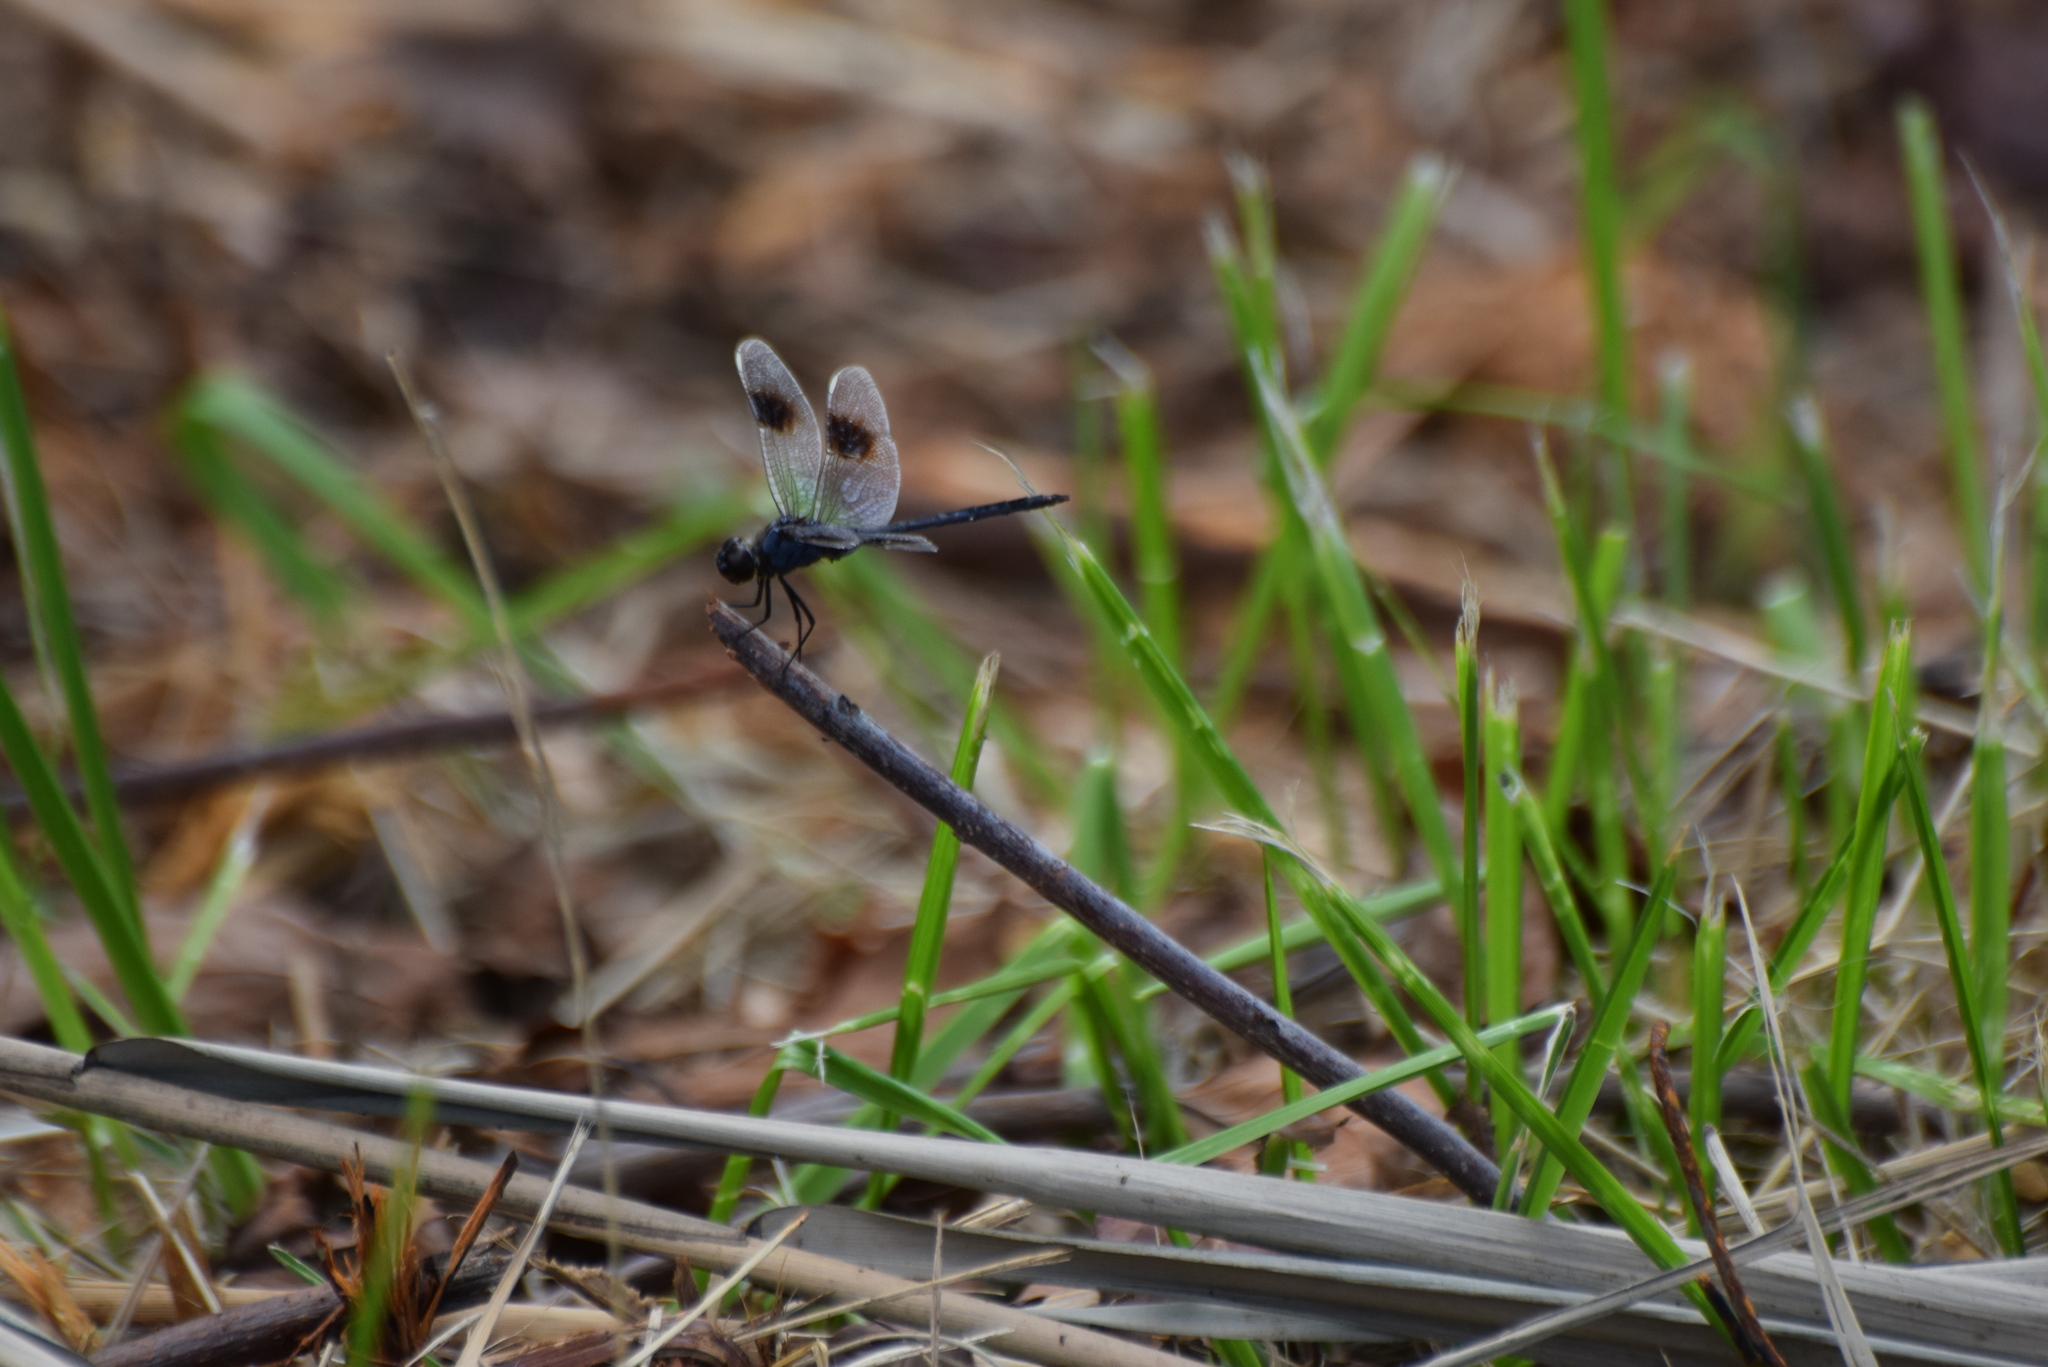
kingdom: Animalia
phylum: Arthropoda
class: Insecta
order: Odonata
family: Libellulidae
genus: Brachymesia
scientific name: Brachymesia gravida
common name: Four-spotted pennant
